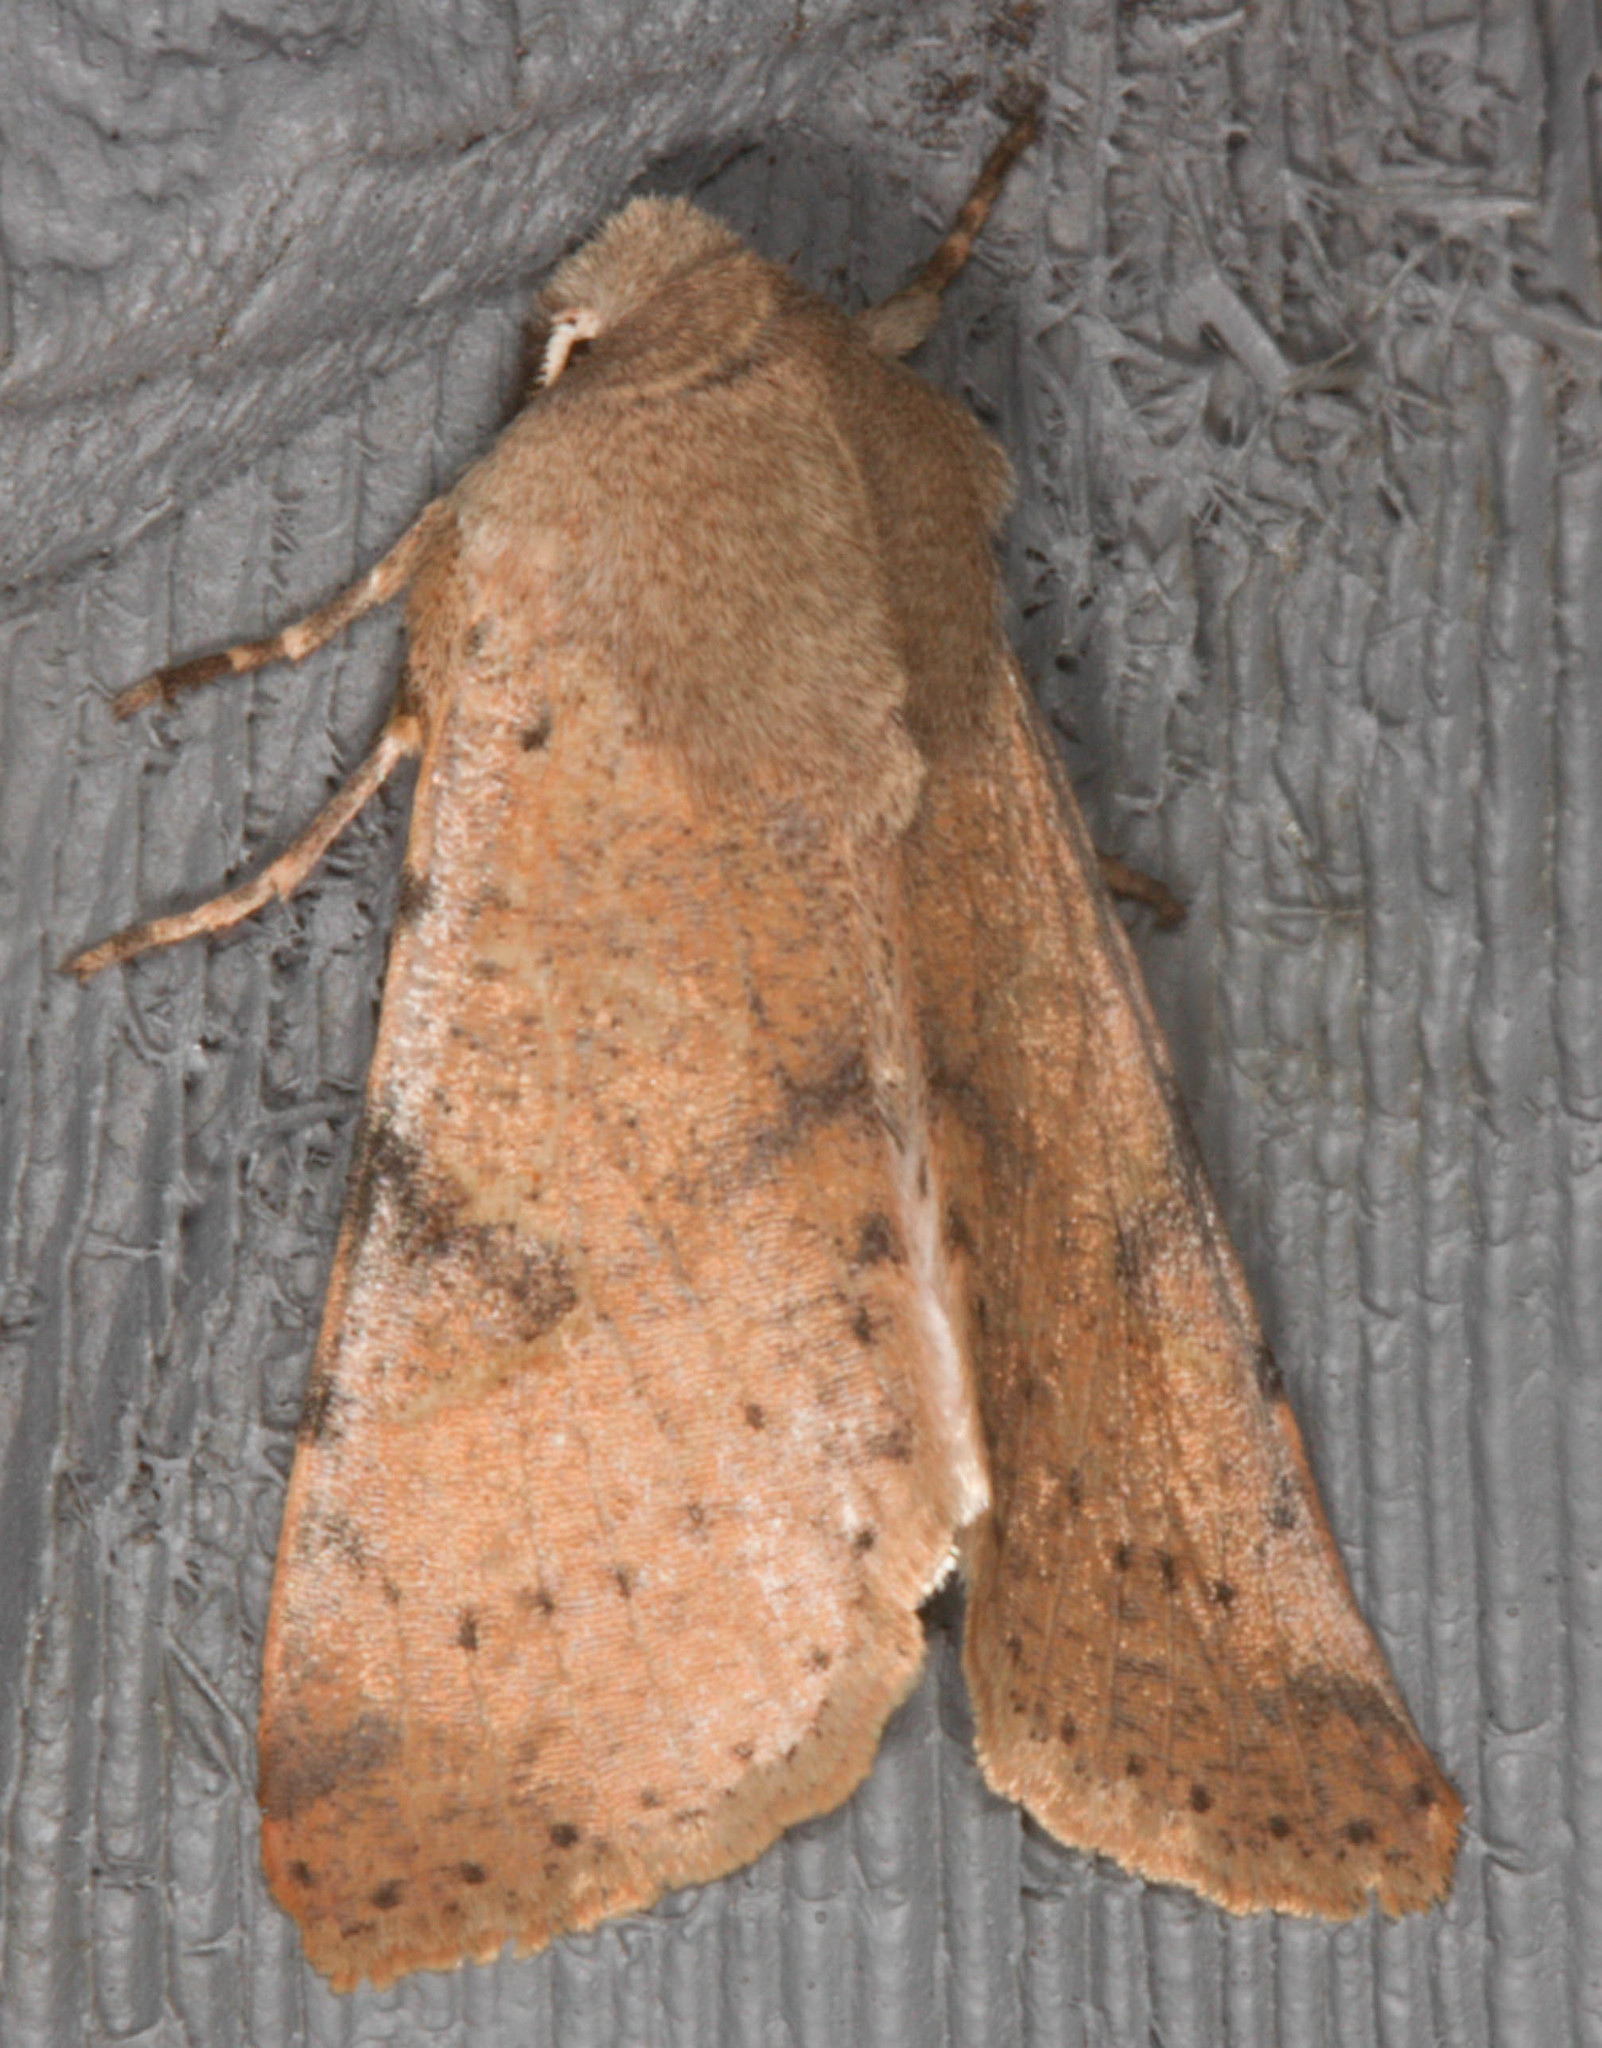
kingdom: Animalia
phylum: Arthropoda
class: Insecta
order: Lepidoptera
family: Noctuidae
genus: Orthosia
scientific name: Orthosia pacifica
